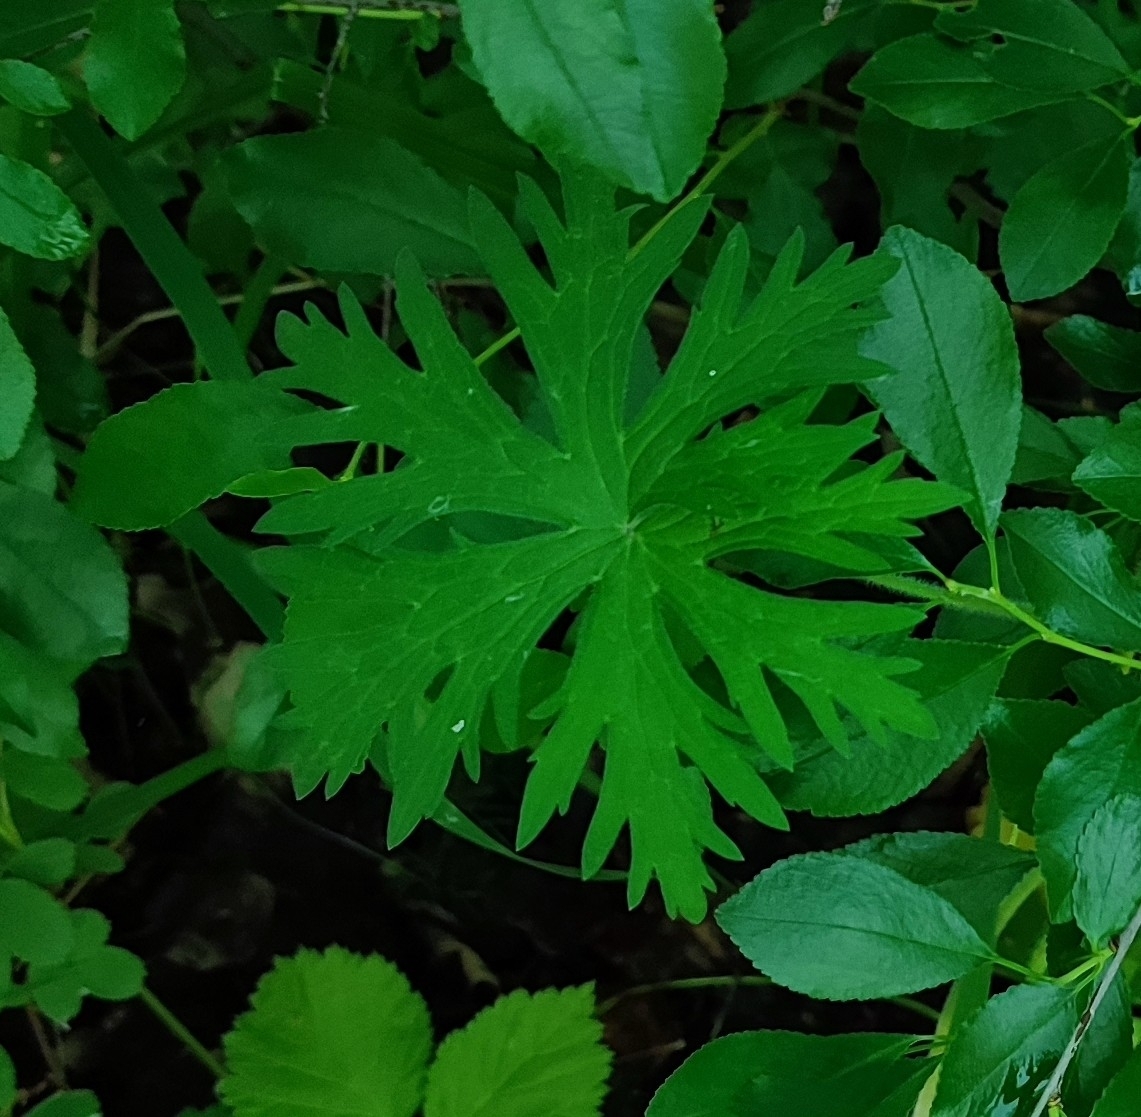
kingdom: Plantae
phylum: Tracheophyta
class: Magnoliopsida
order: Geraniales
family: Geraniaceae
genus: Geranium
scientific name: Geranium pratense
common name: Meadow crane's-bill
